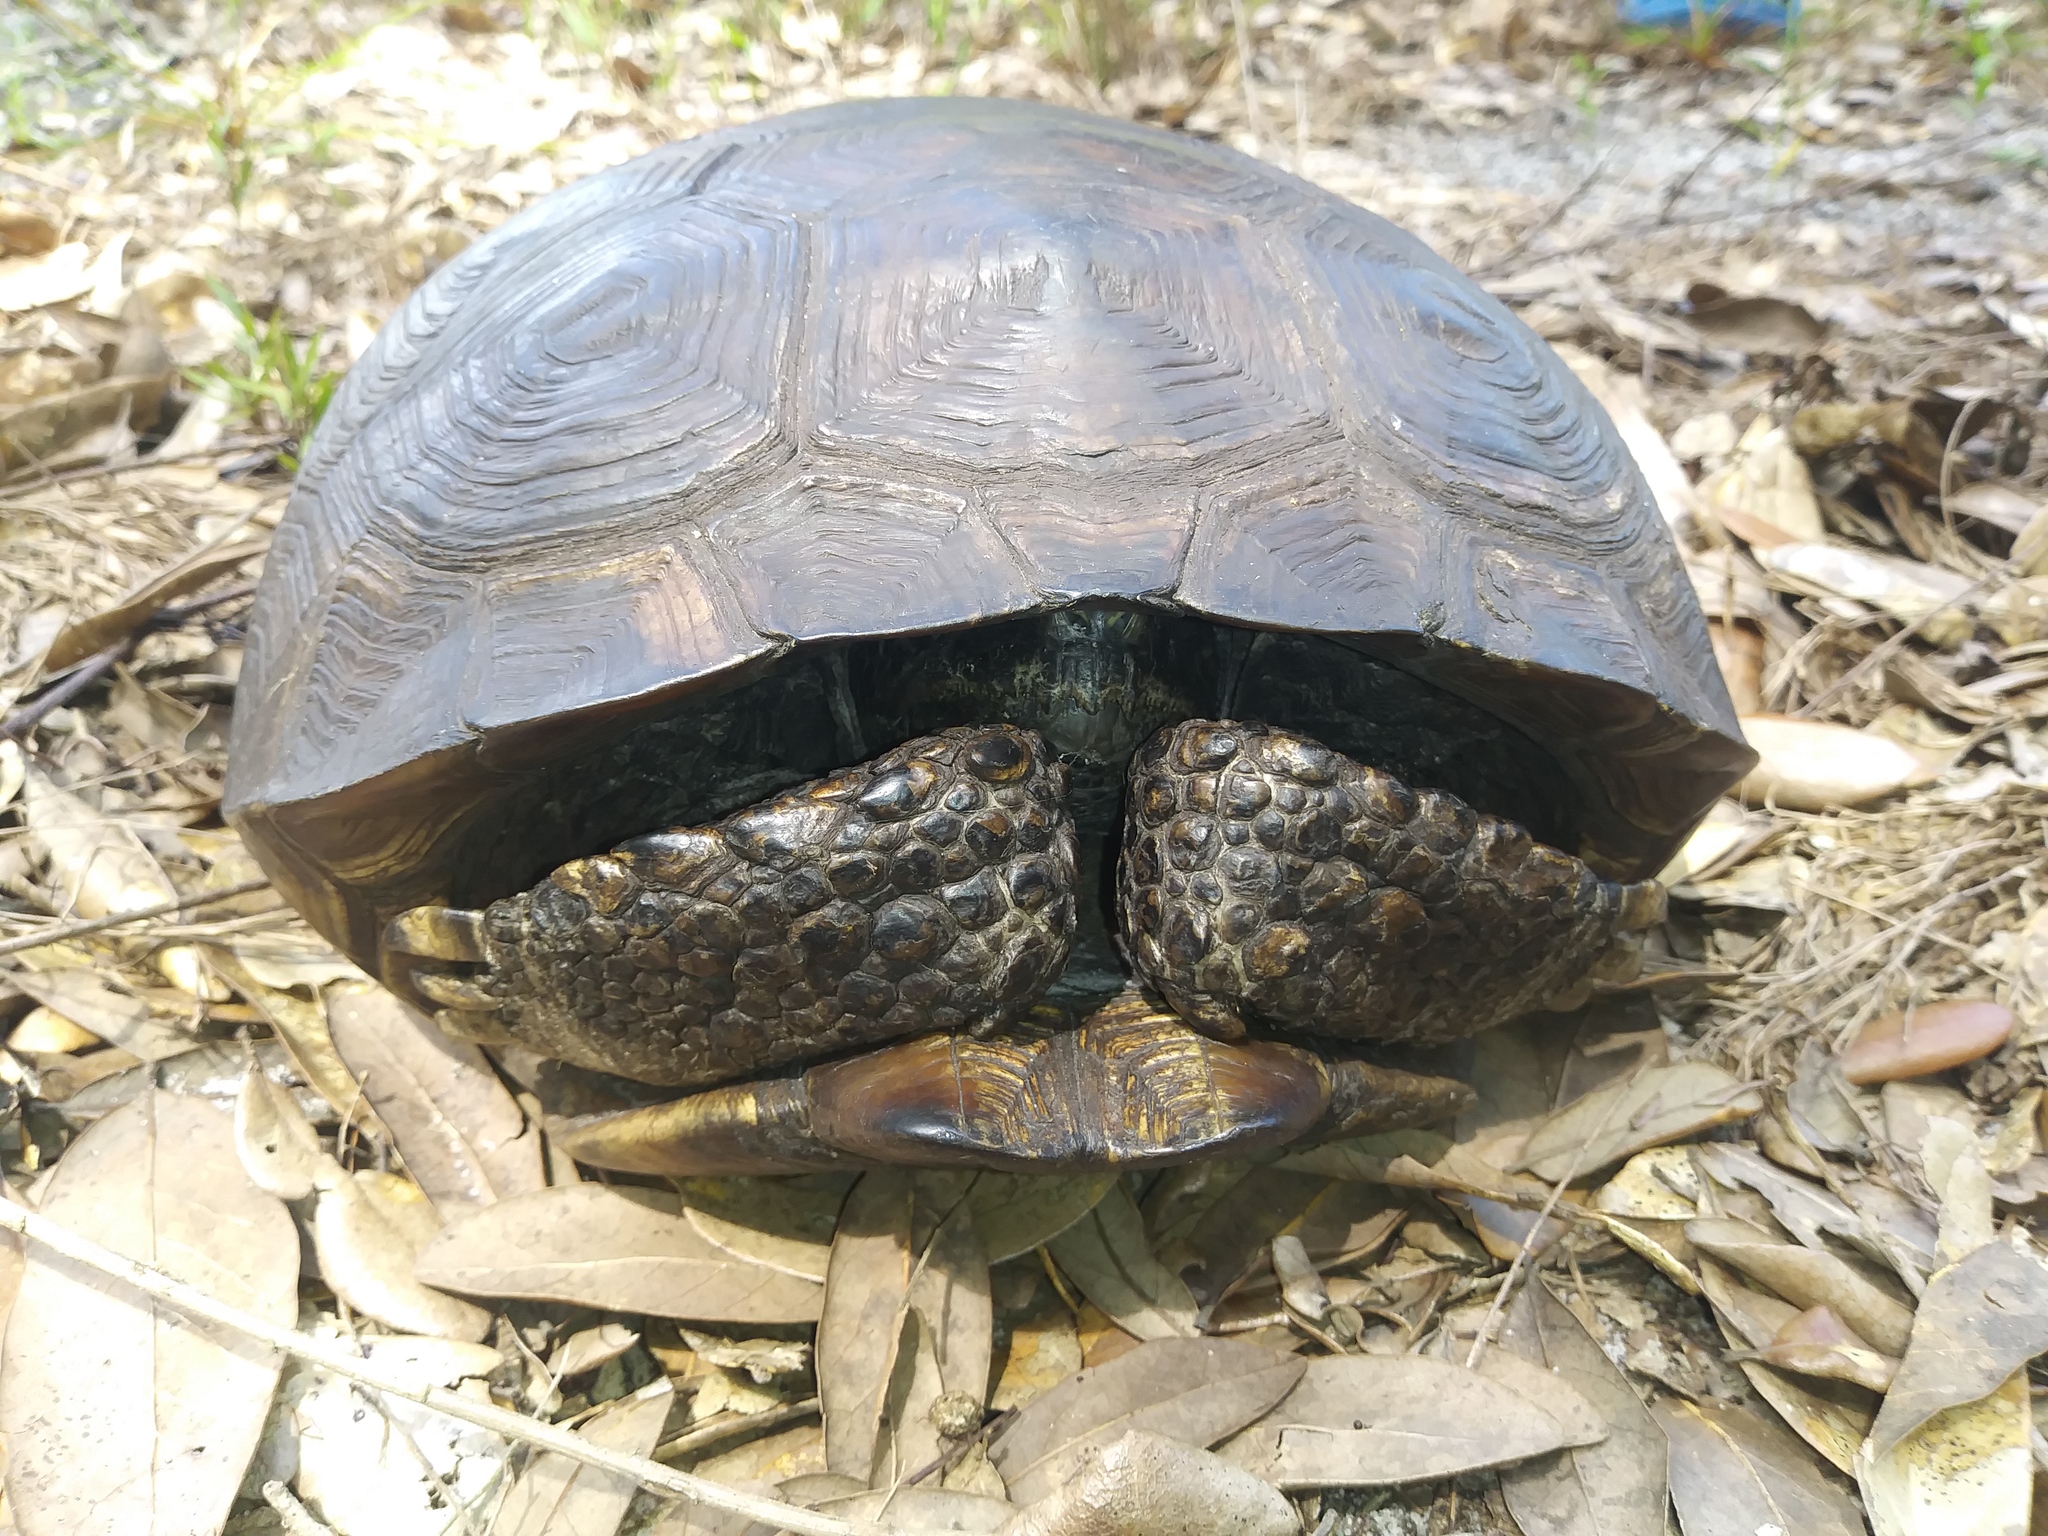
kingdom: Animalia
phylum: Chordata
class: Testudines
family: Testudinidae
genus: Gopherus
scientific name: Gopherus polyphemus
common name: Florida gopher tortoise
